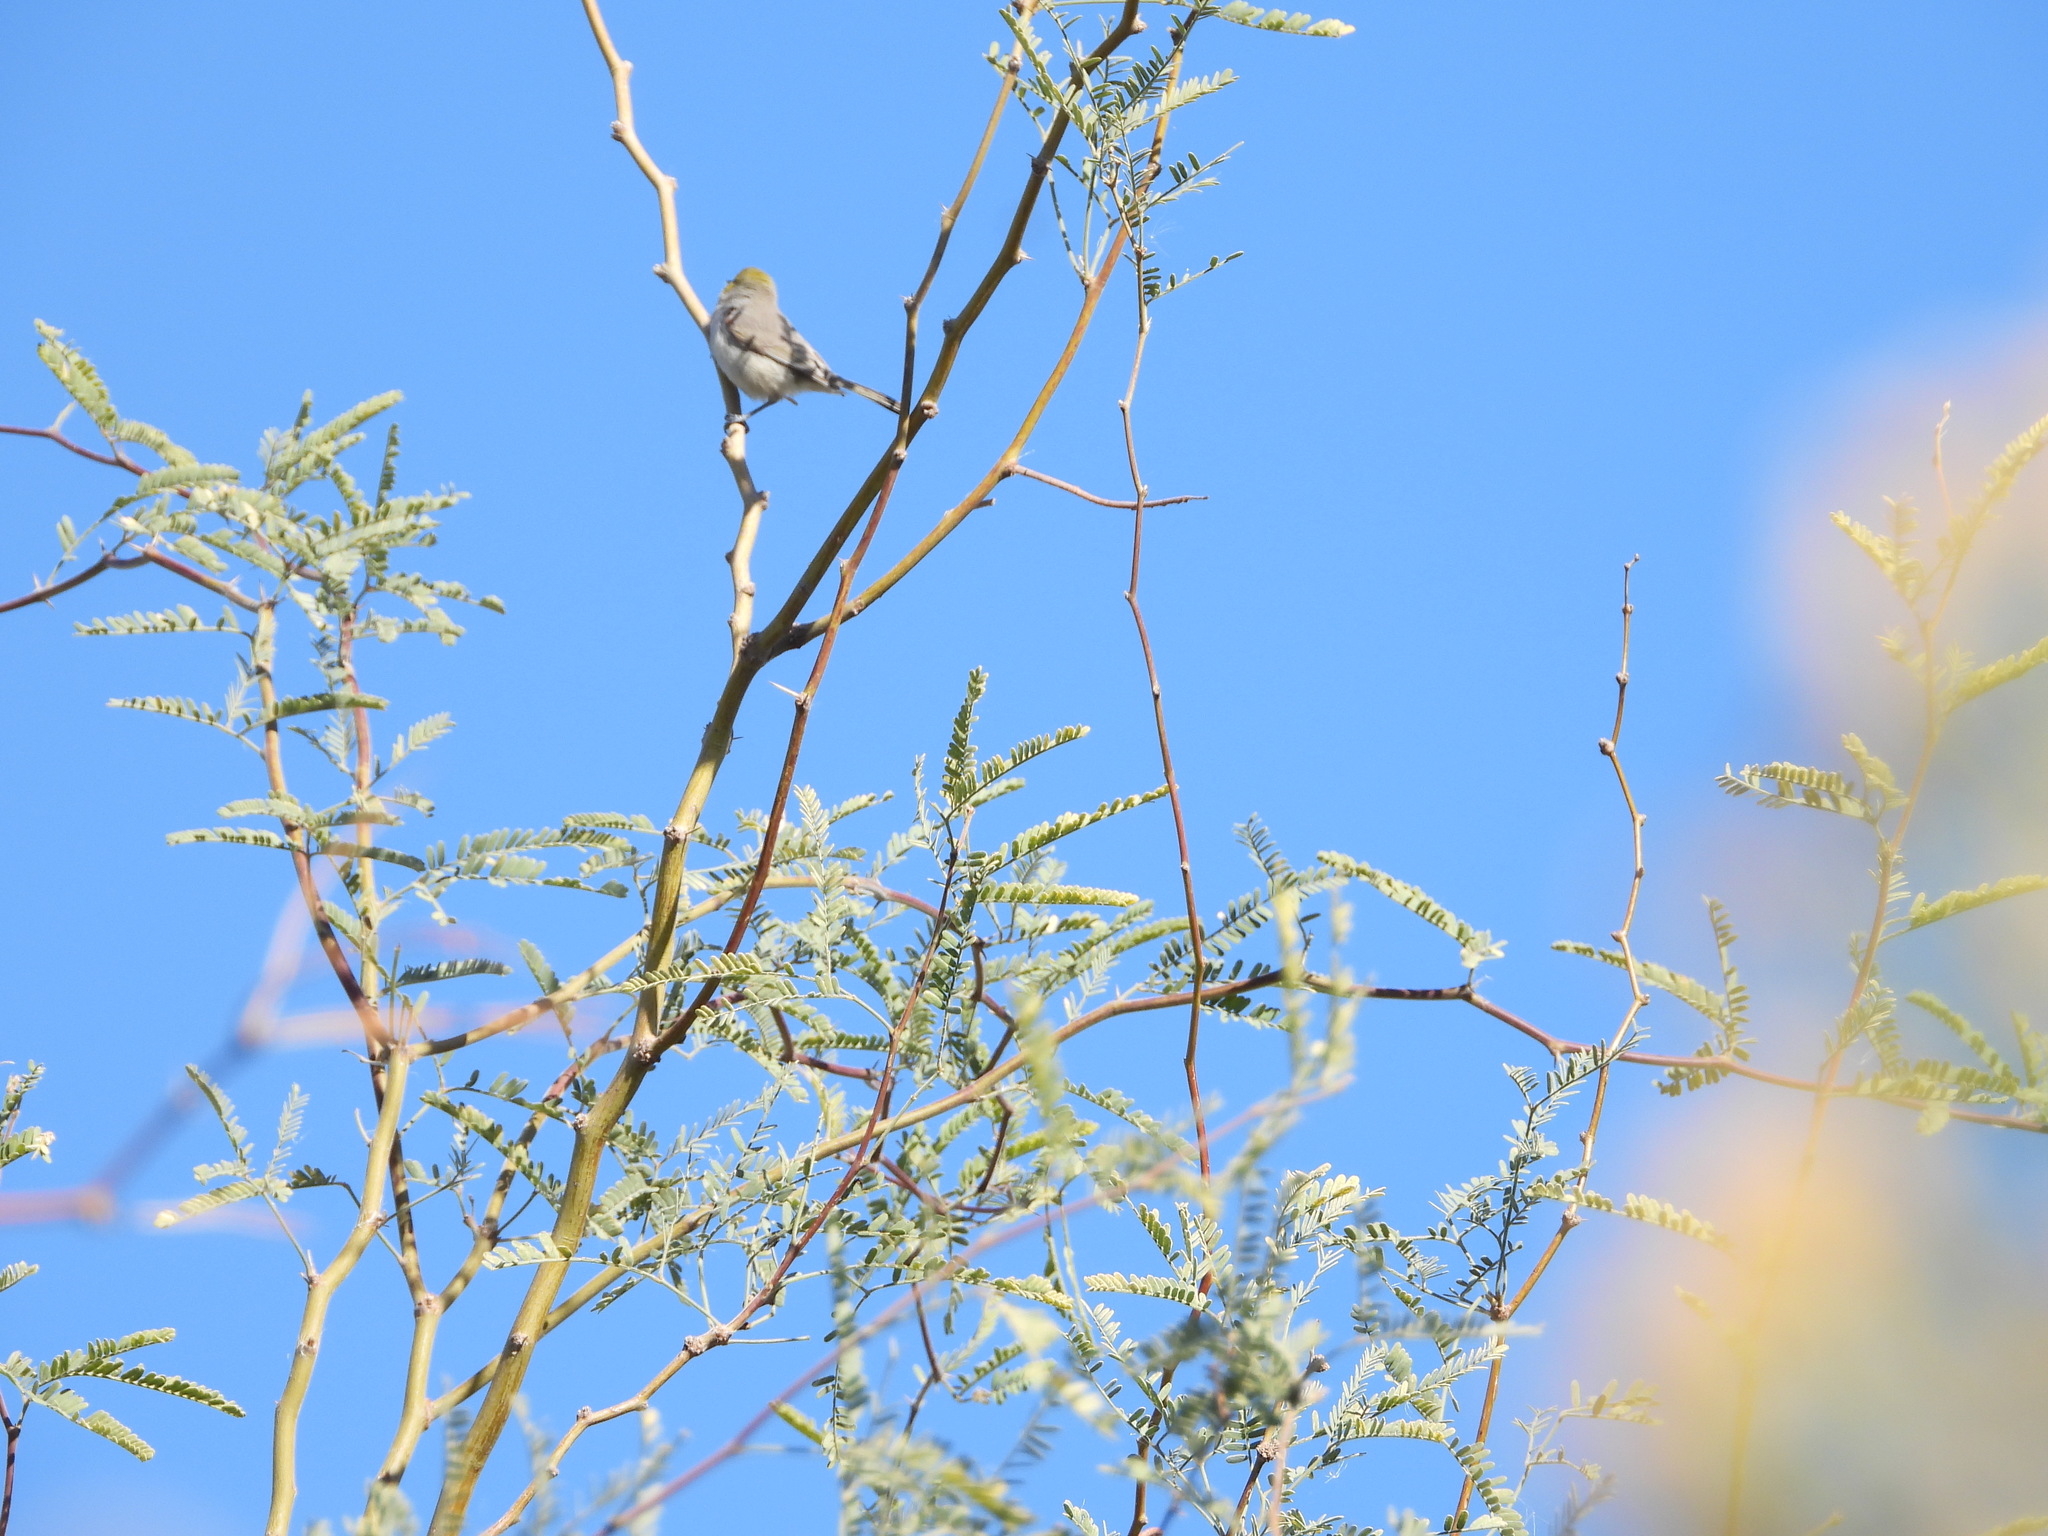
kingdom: Animalia
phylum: Chordata
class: Aves
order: Passeriformes
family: Remizidae
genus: Auriparus
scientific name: Auriparus flaviceps
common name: Verdin
